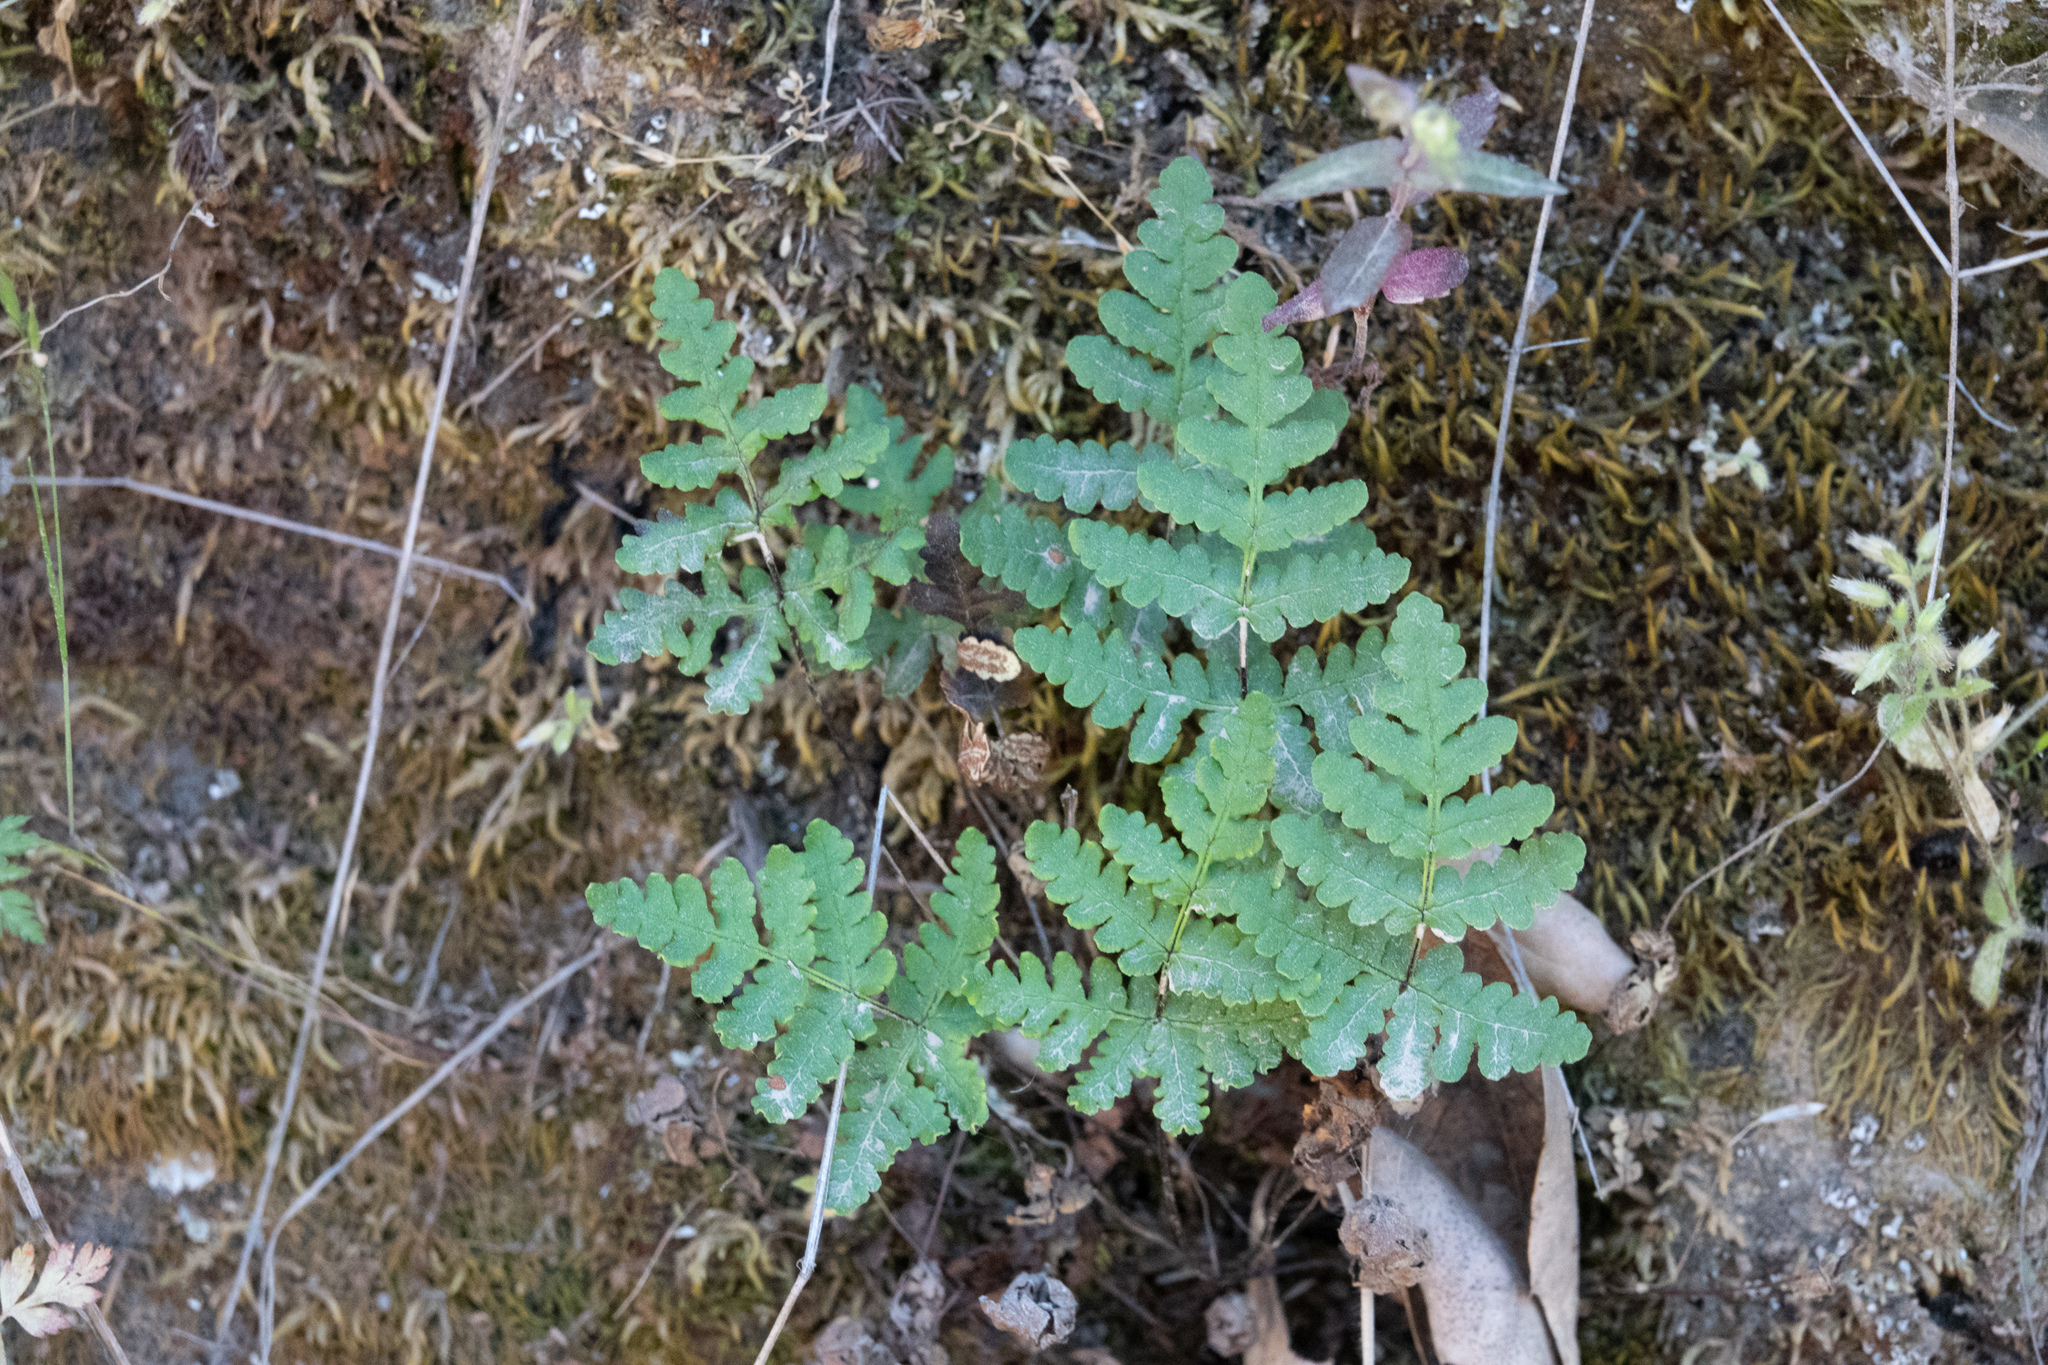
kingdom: Plantae
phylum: Tracheophyta
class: Polypodiopsida
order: Polypodiales
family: Pteridaceae
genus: Pentagramma
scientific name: Pentagramma triangularis
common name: Gold fern
